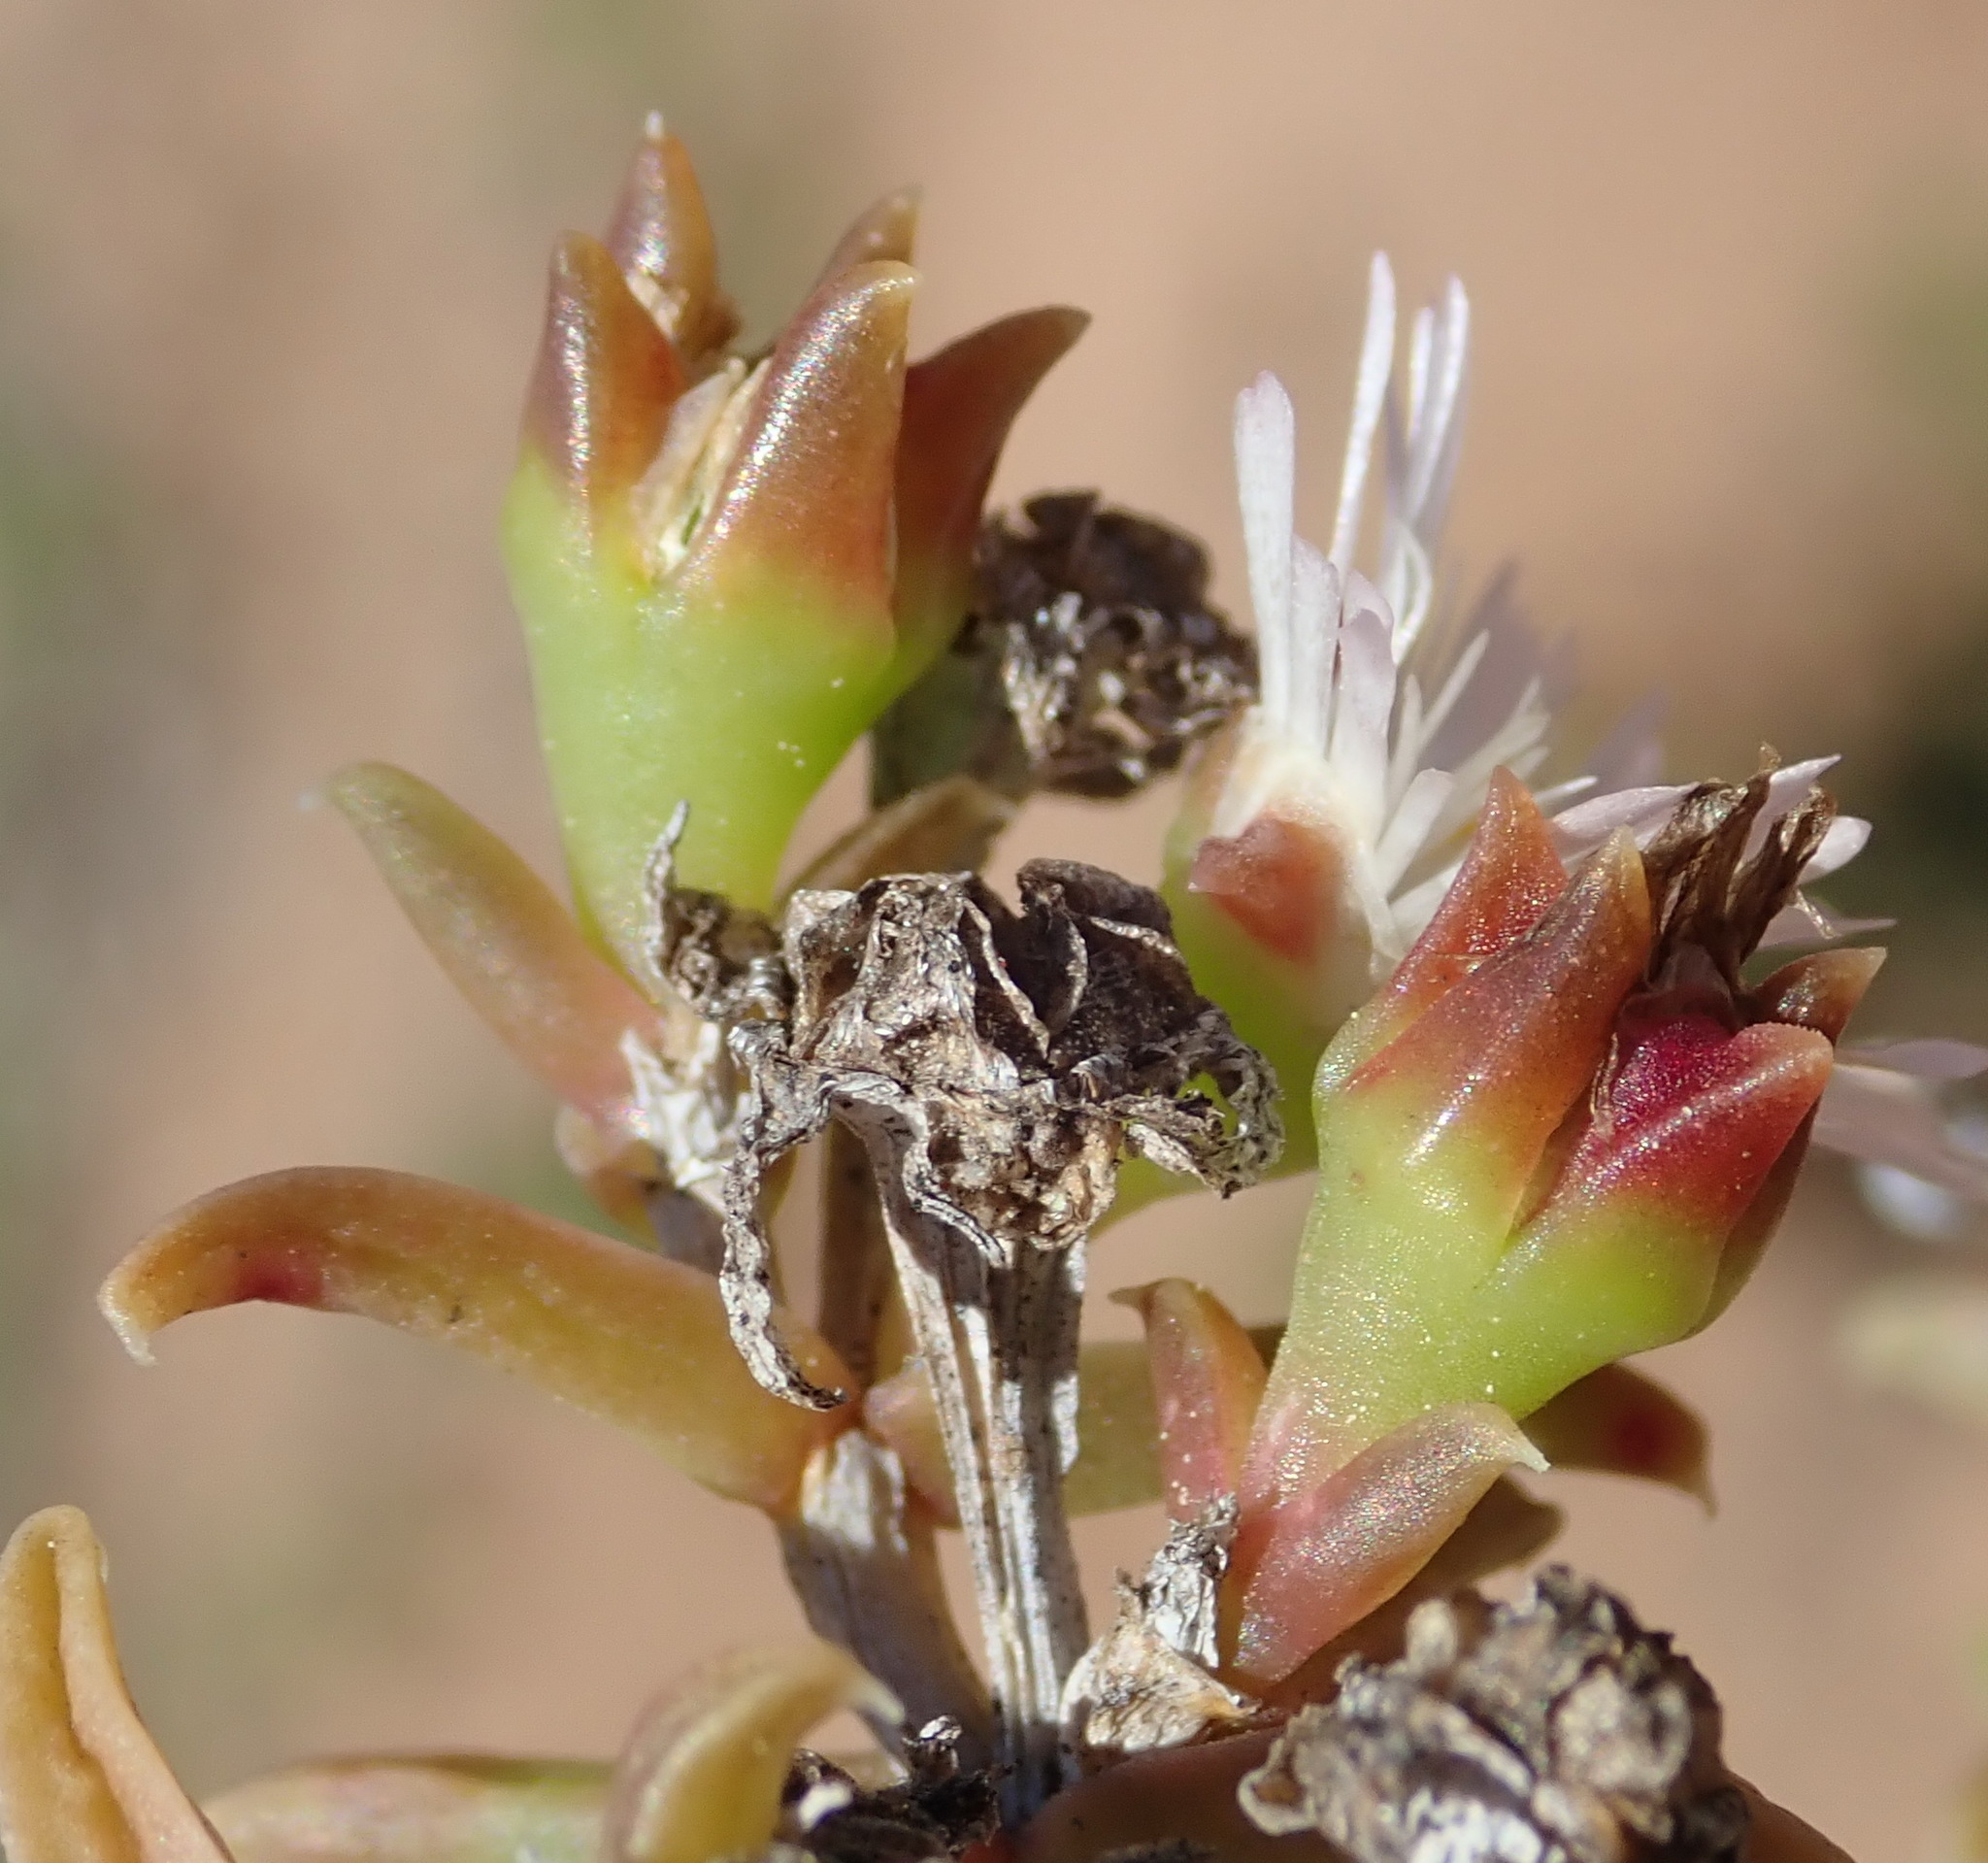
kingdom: Plantae
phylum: Tracheophyta
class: Magnoliopsida
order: Caryophyllales
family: Aizoaceae
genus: Delosperma
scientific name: Delosperma inconspicuum
